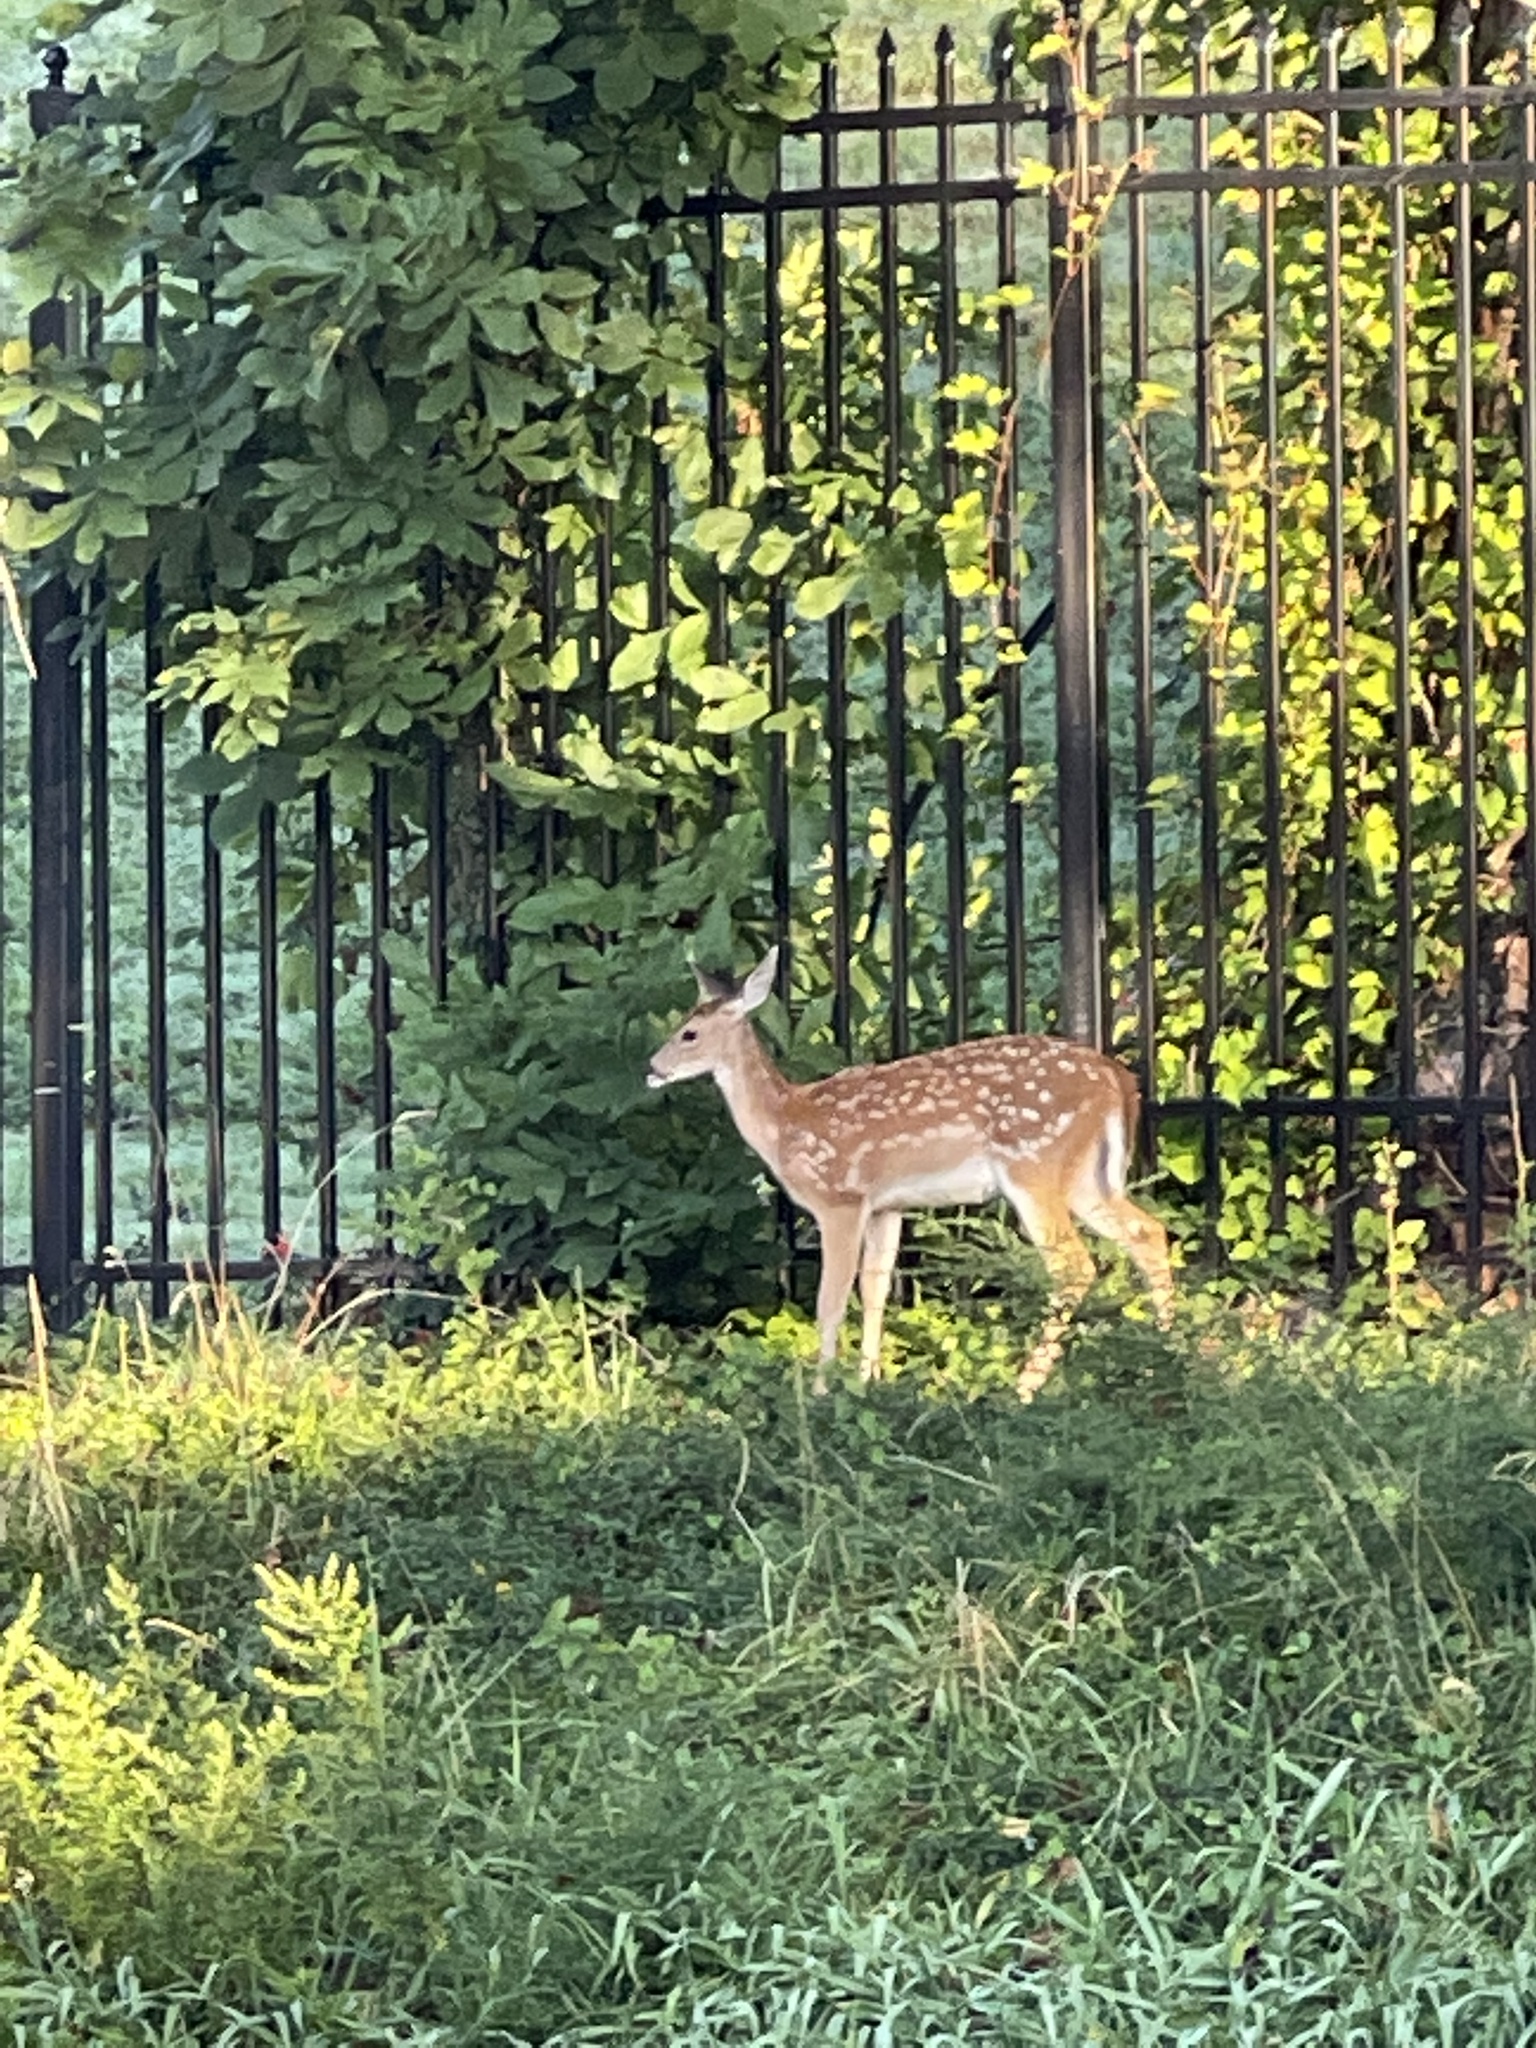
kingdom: Animalia
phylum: Chordata
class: Mammalia
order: Artiodactyla
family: Cervidae
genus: Odocoileus
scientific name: Odocoileus virginianus
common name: White-tailed deer
